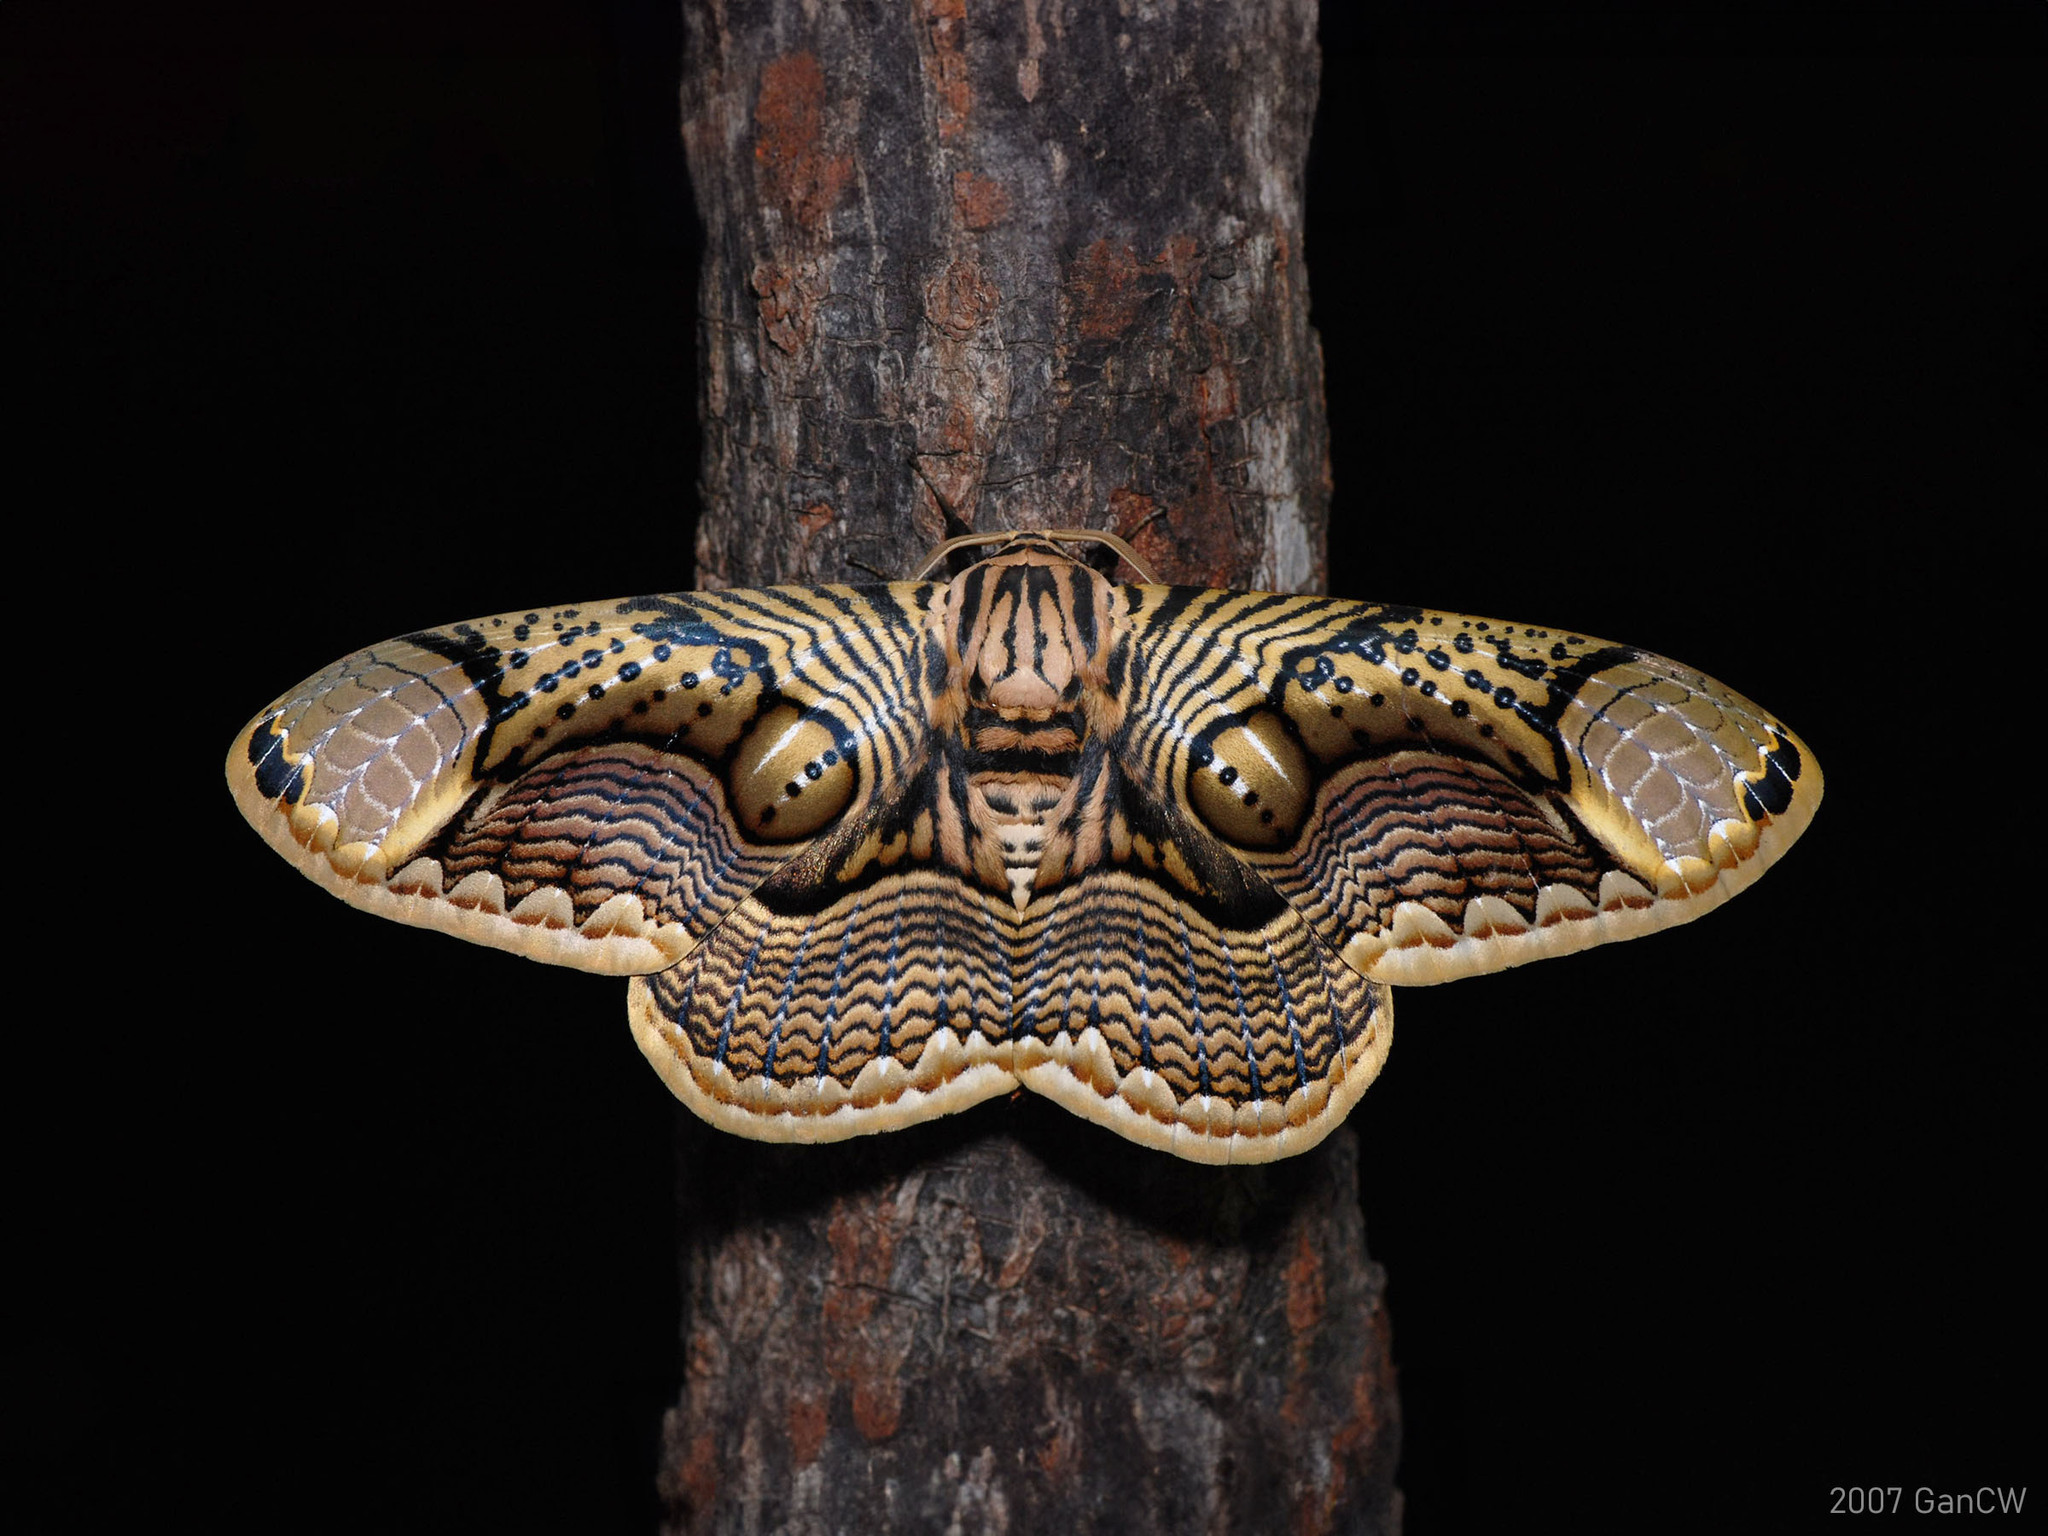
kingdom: Animalia
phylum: Arthropoda
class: Insecta
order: Lepidoptera
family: Brahmaeidae
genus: Brahmaea
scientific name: Brahmaea hearseyi
